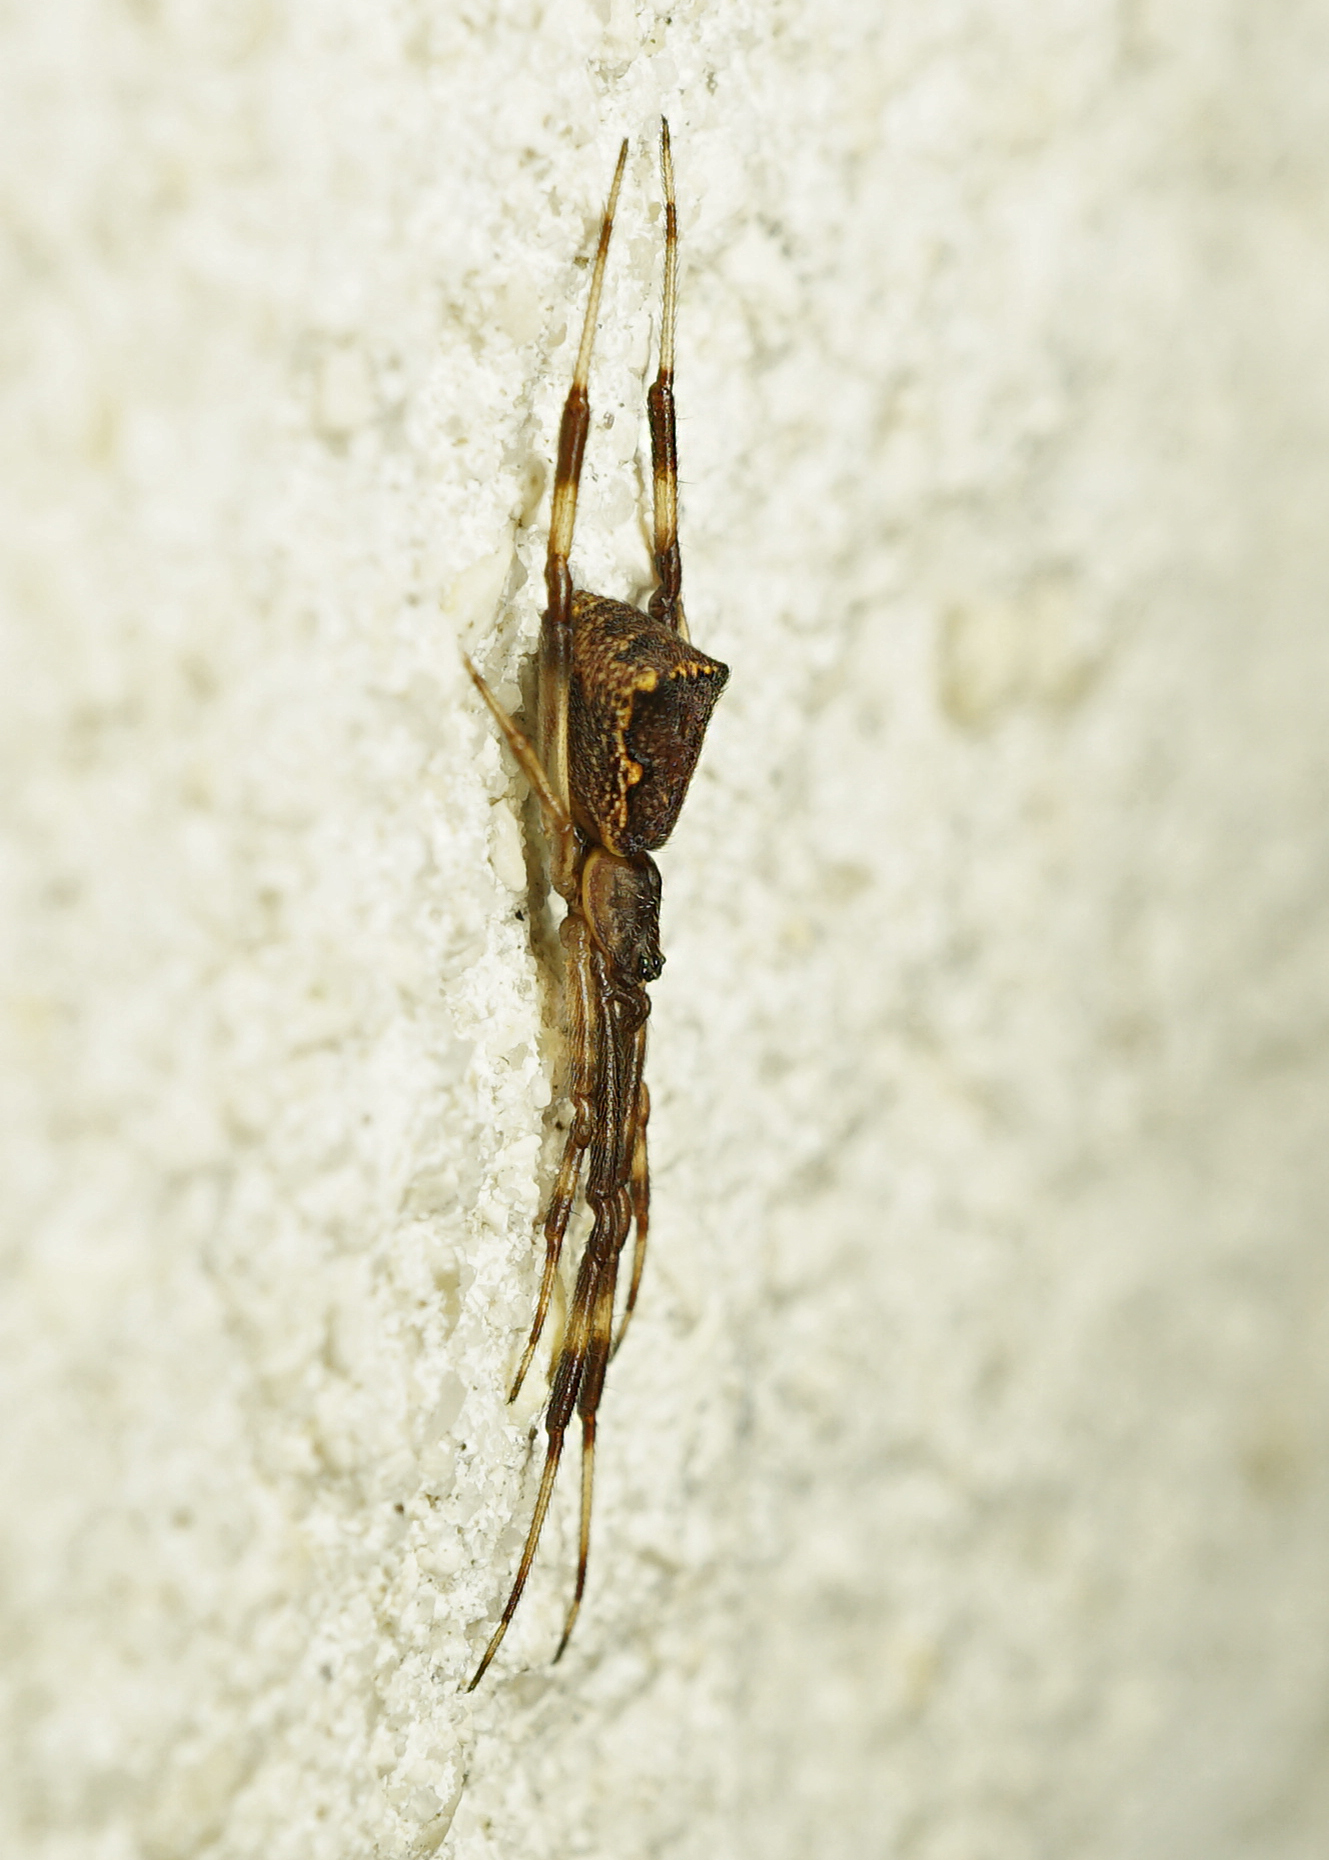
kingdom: Animalia
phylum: Arthropoda
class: Arachnida
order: Araneae
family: Theridiidae
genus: Episinus
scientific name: Episinus angulatus
